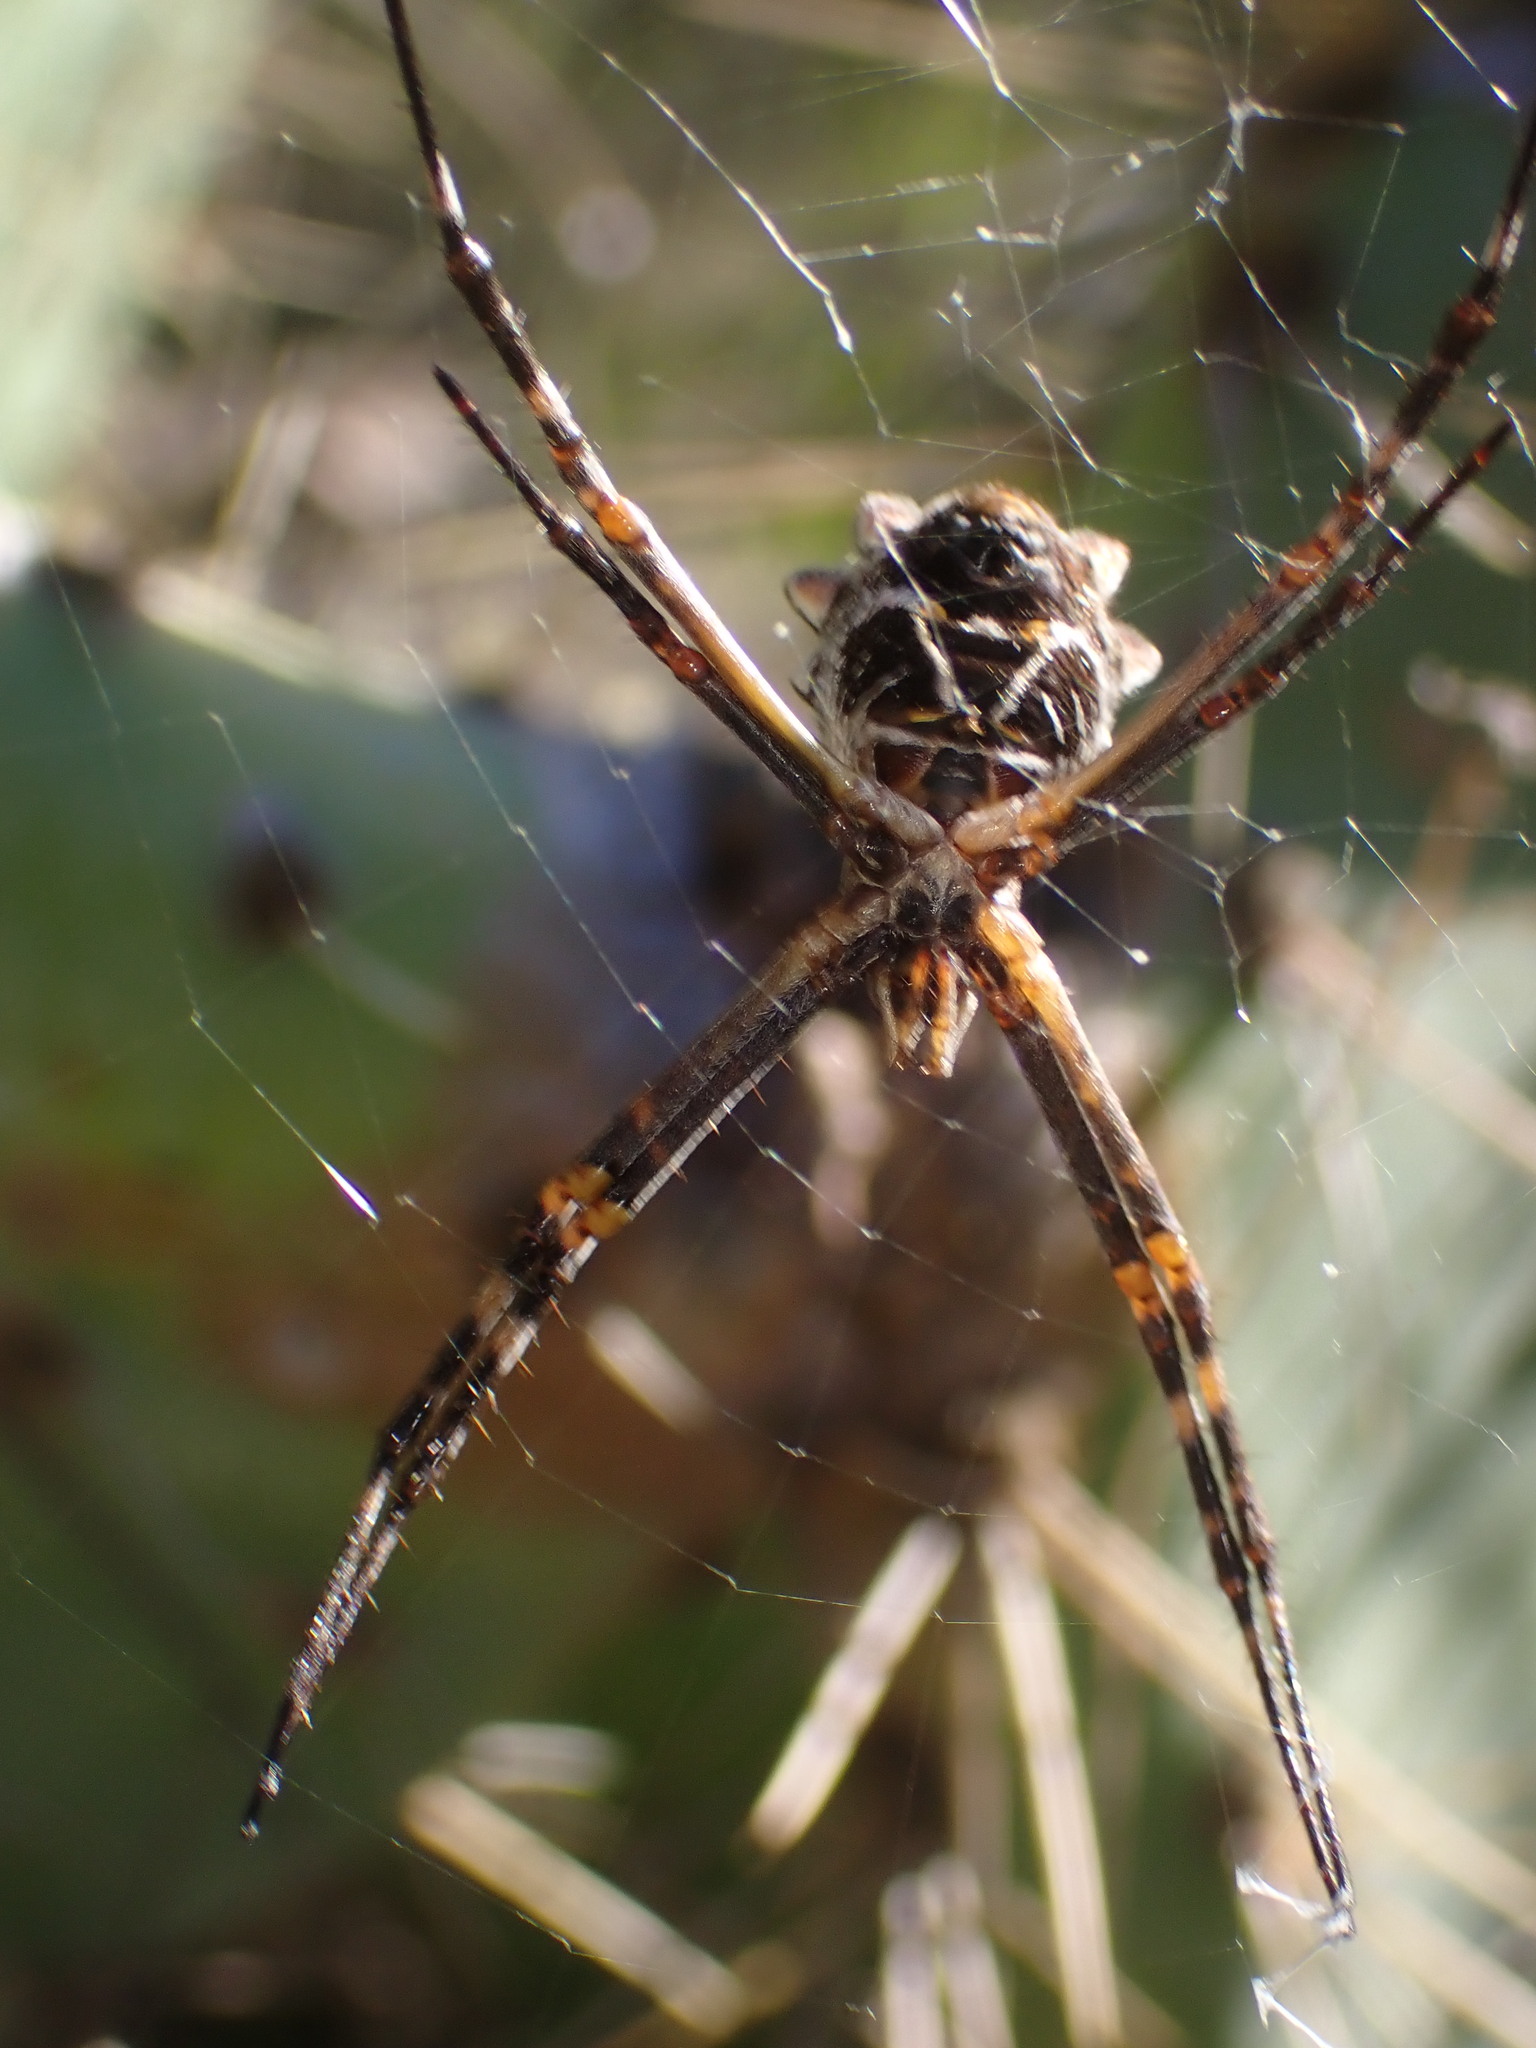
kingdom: Animalia
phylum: Arthropoda
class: Arachnida
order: Araneae
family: Araneidae
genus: Argiope
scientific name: Argiope argentata
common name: Orb weavers
